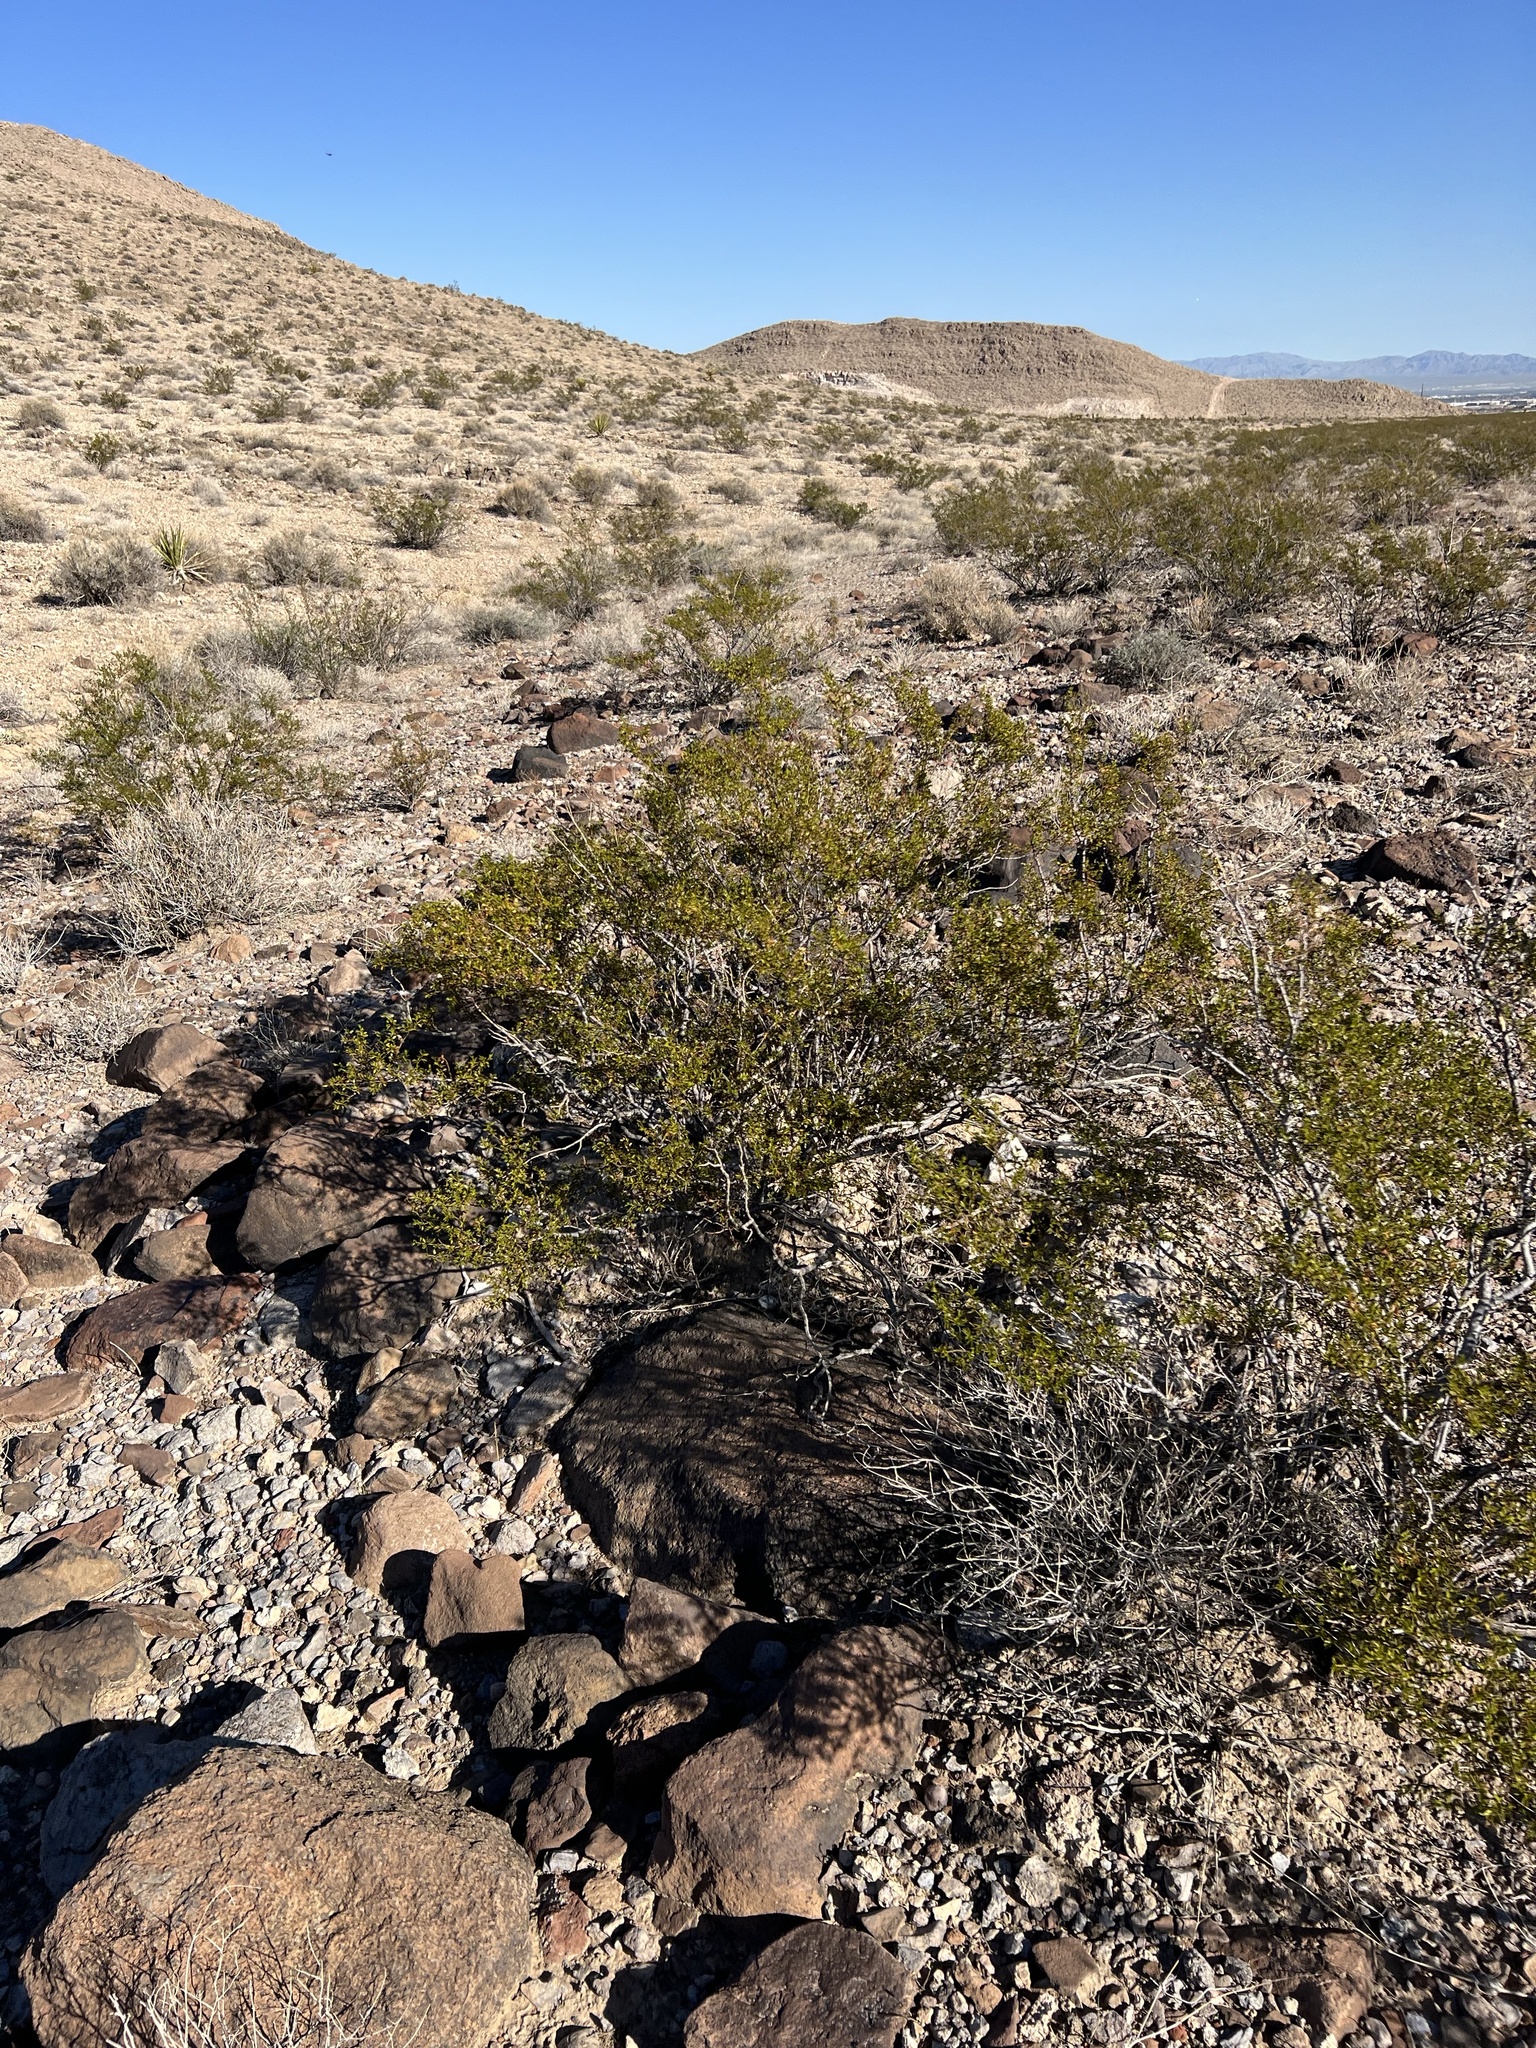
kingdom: Plantae
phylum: Tracheophyta
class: Magnoliopsida
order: Zygophyllales
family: Zygophyllaceae
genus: Larrea
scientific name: Larrea tridentata
